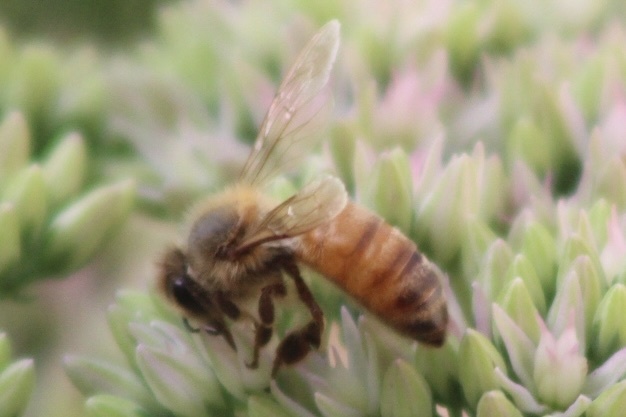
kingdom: Animalia
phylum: Arthropoda
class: Insecta
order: Hymenoptera
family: Apidae
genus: Apis
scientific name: Apis mellifera
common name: Honey bee
